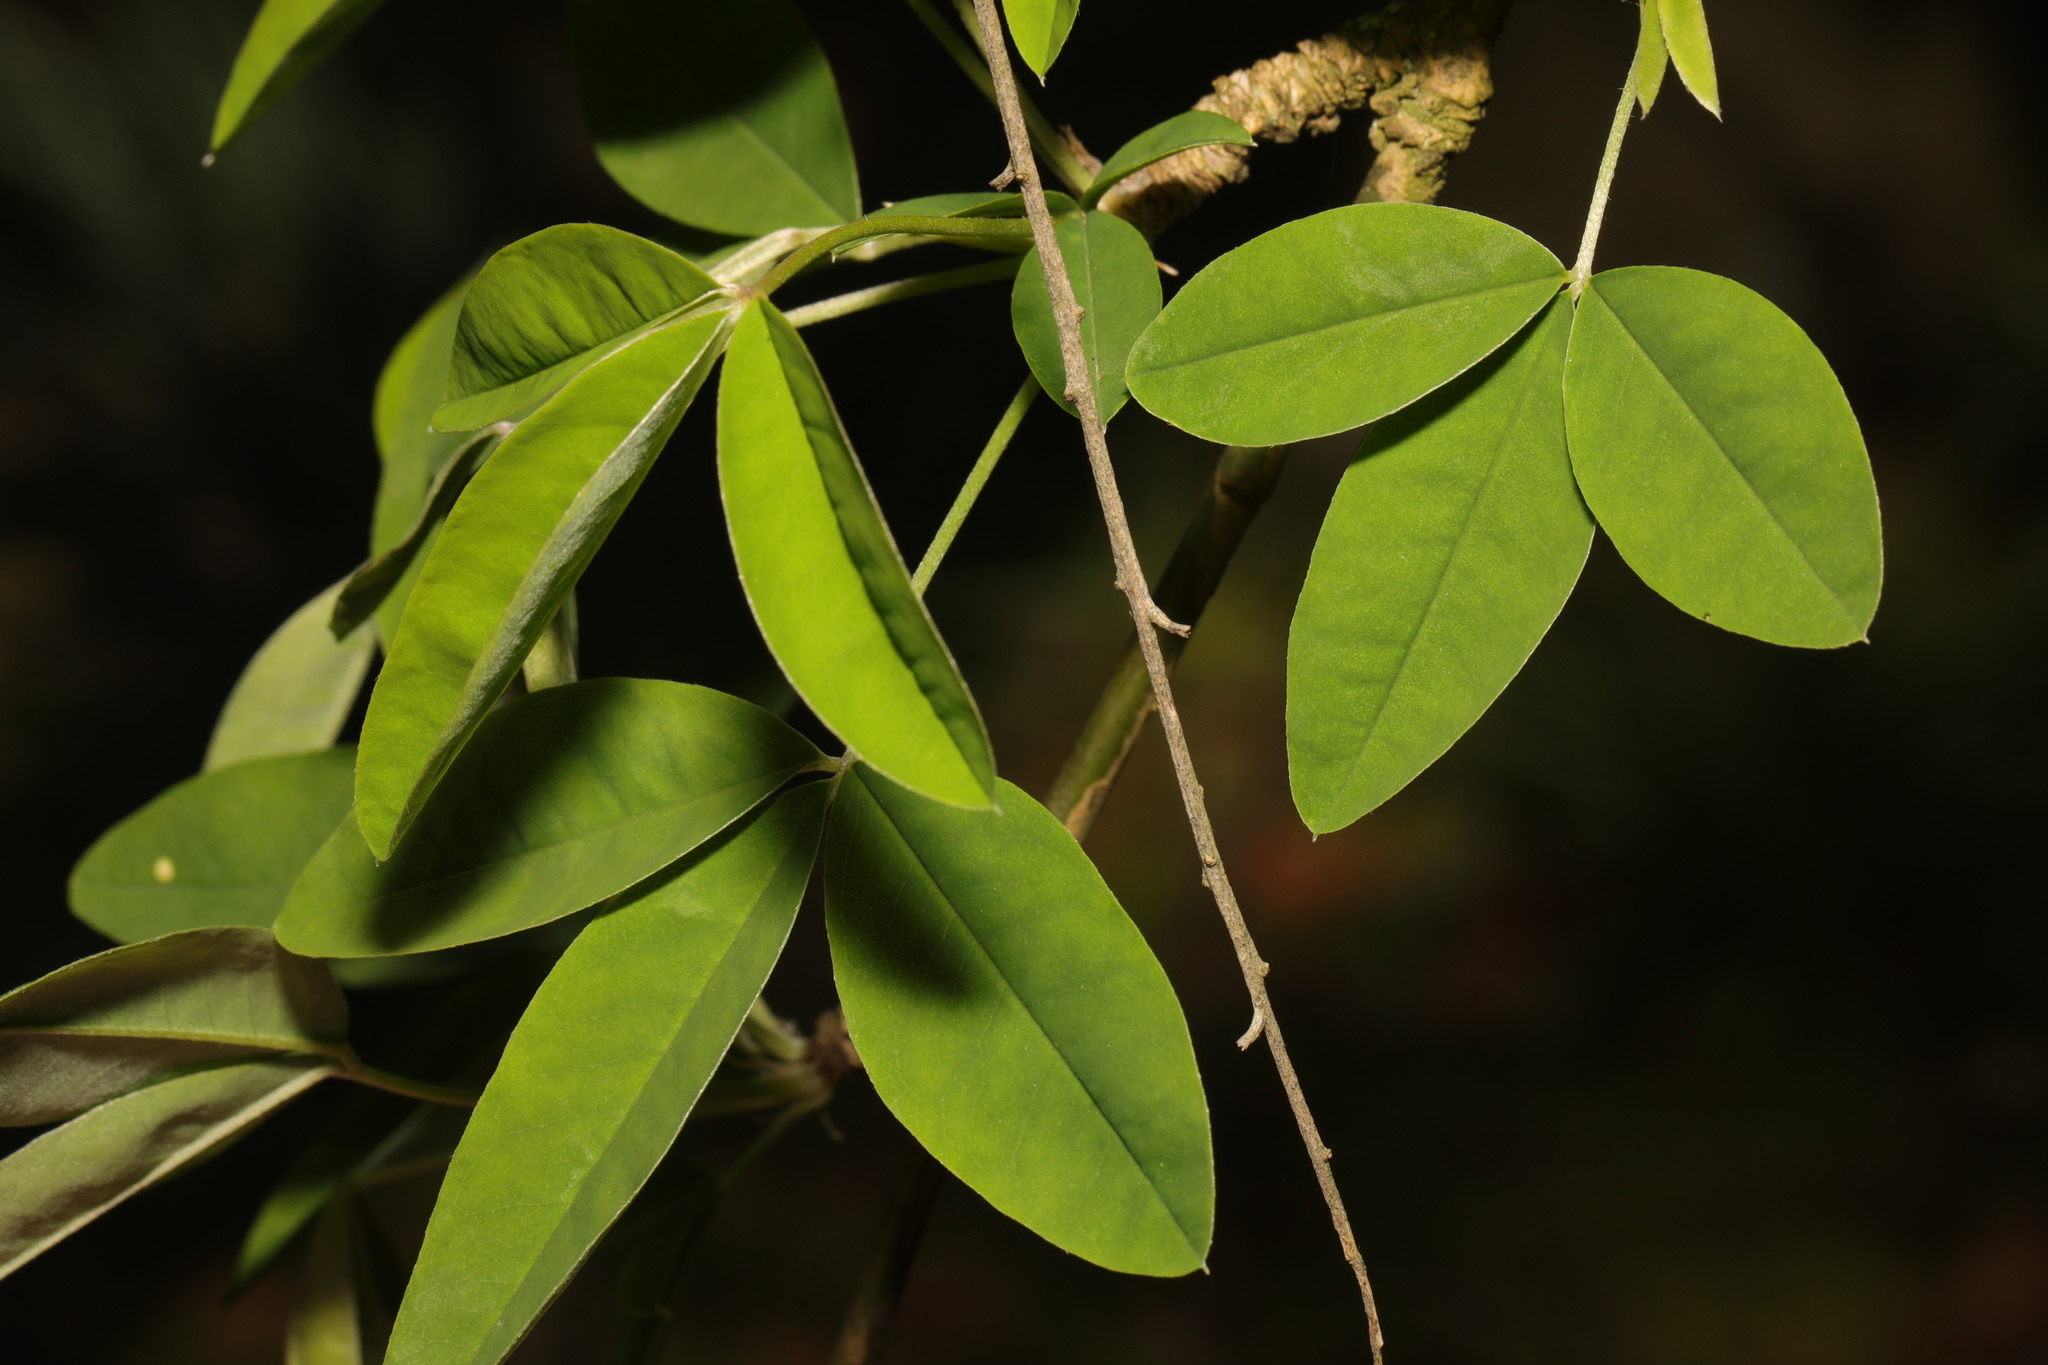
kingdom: Plantae
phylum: Tracheophyta
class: Magnoliopsida
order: Fabales
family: Fabaceae
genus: Laburnum
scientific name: Laburnum anagyroides
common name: Laburnum
